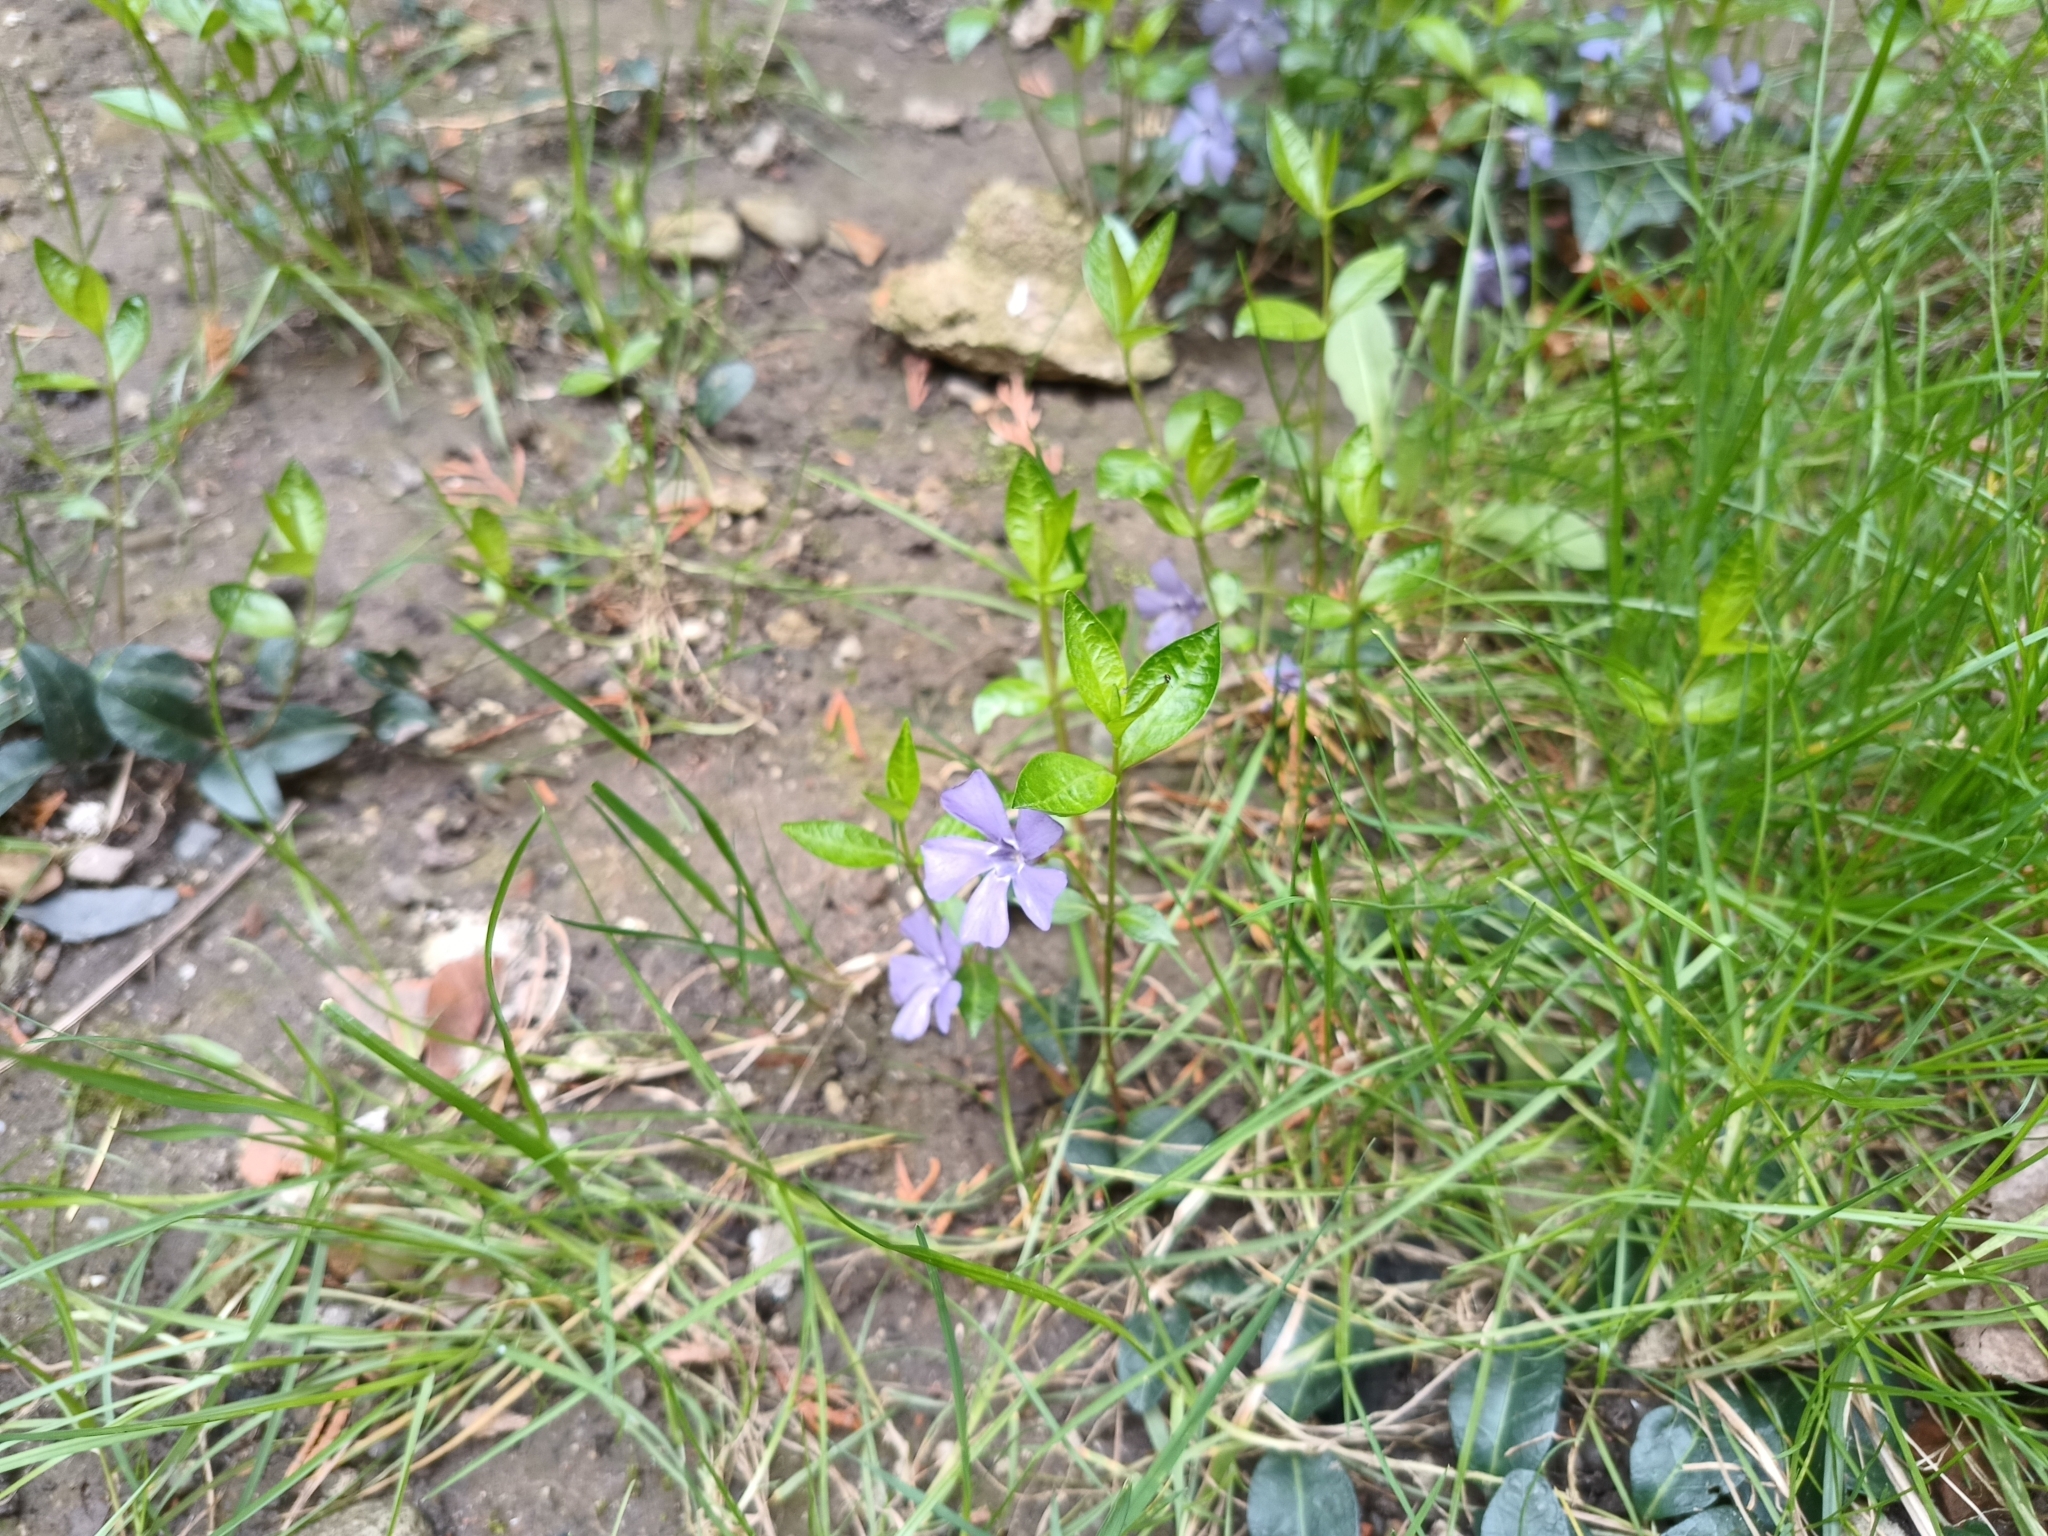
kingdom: Plantae
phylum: Tracheophyta
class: Magnoliopsida
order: Gentianales
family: Apocynaceae
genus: Vinca
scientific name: Vinca minor
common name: Lesser periwinkle
